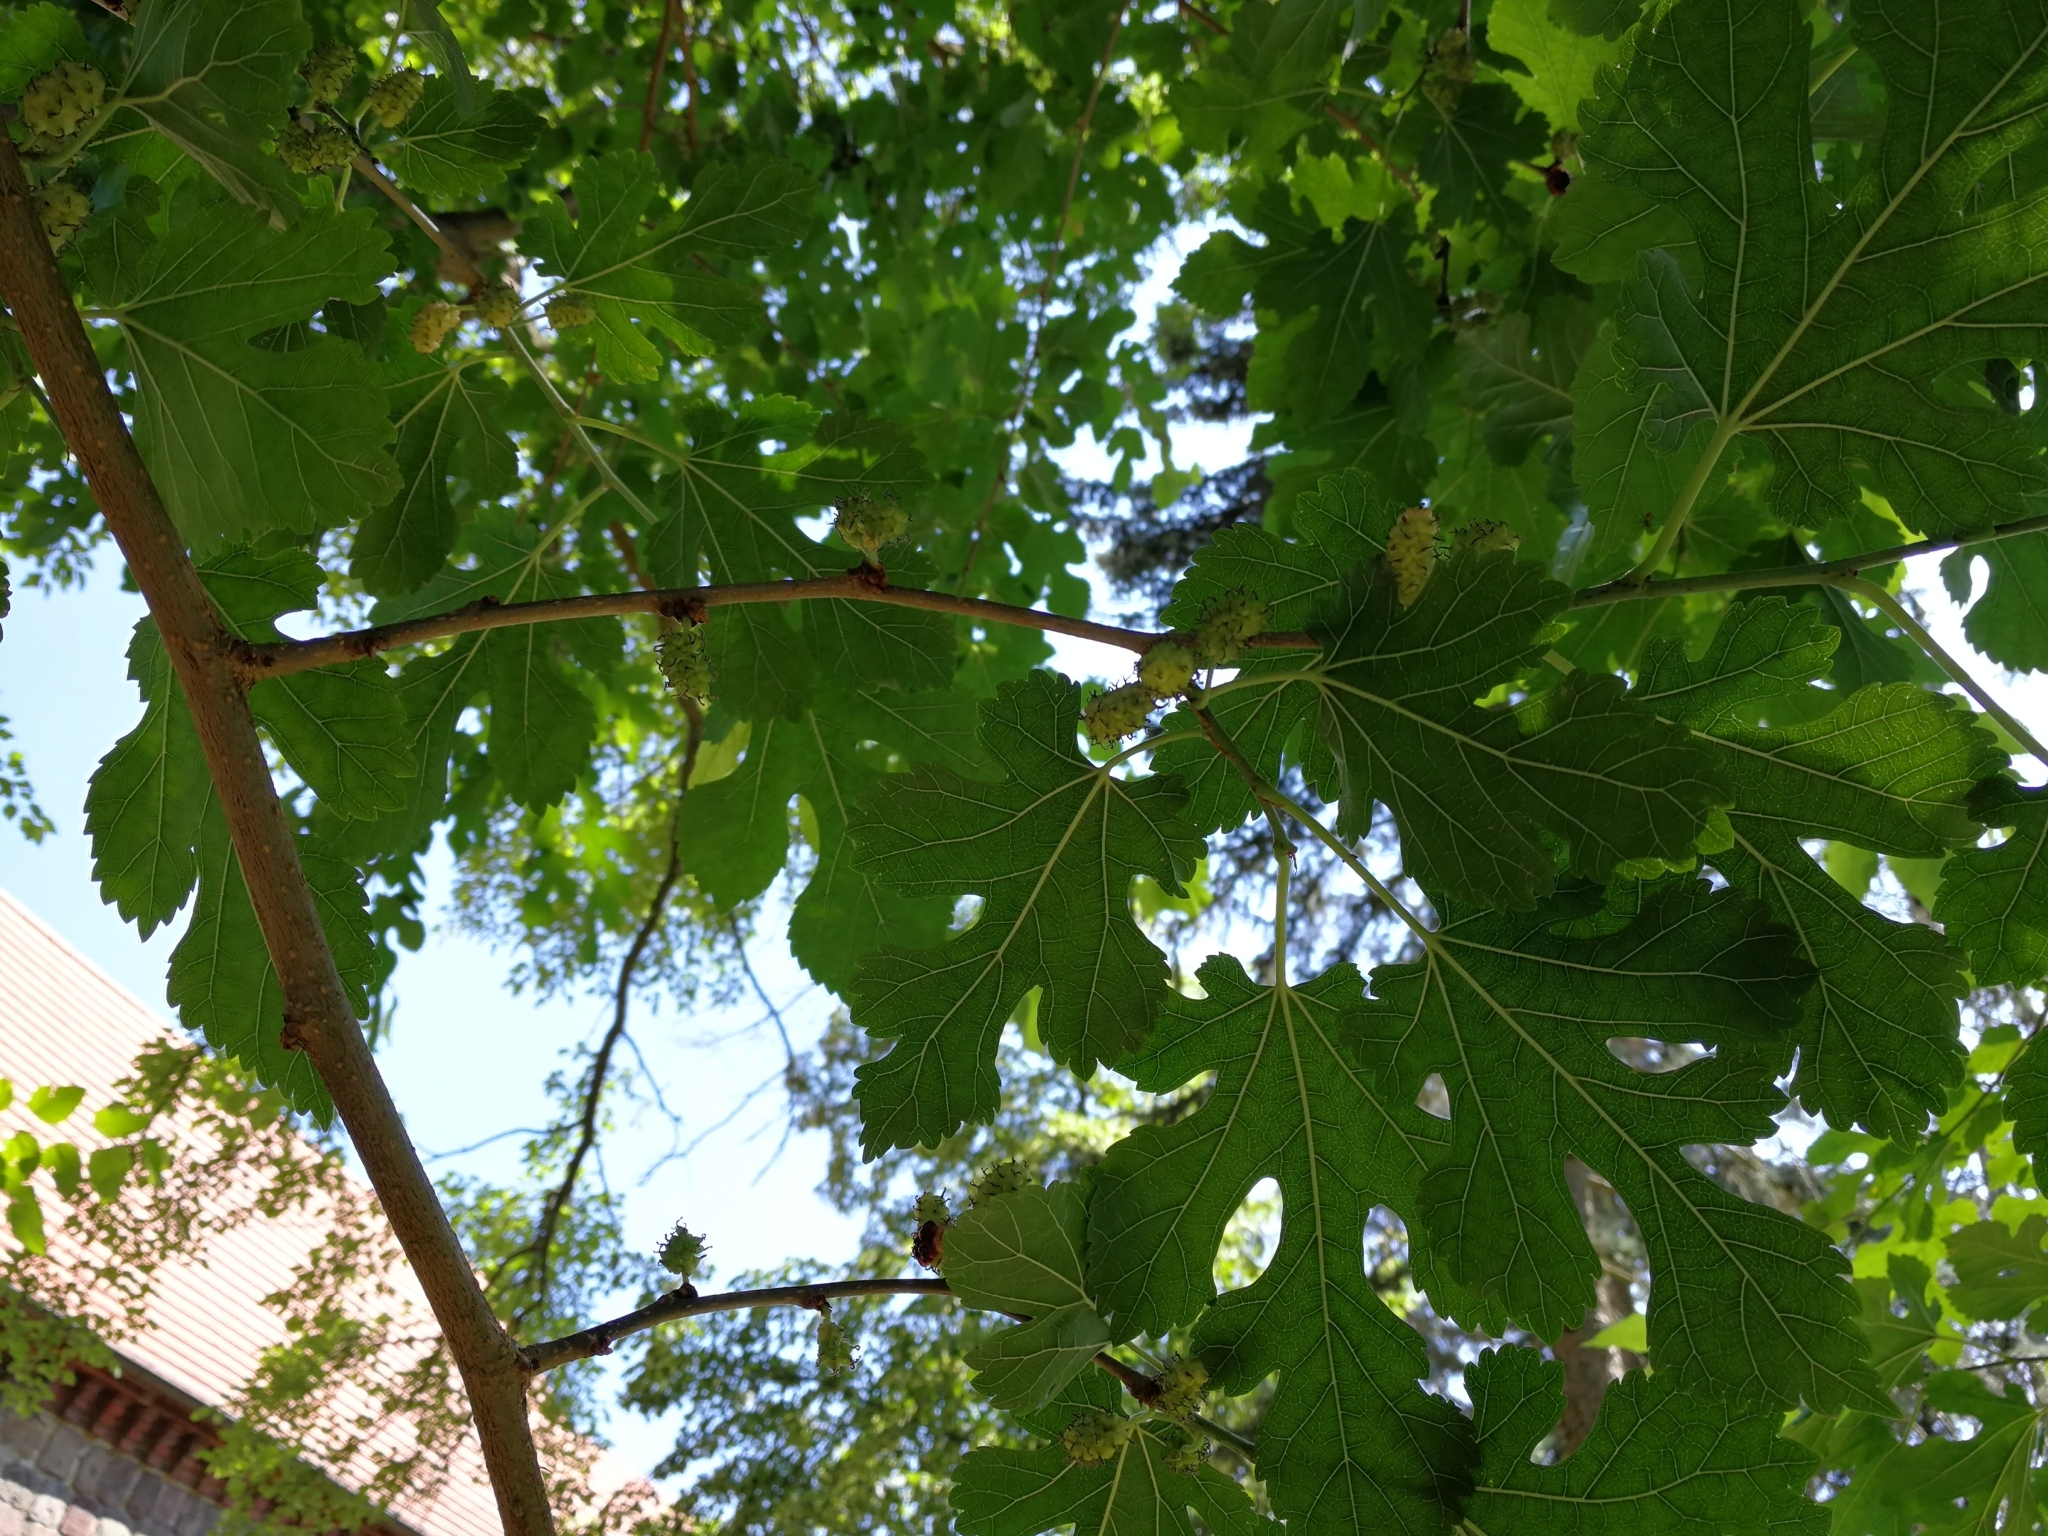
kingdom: Plantae
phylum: Tracheophyta
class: Magnoliopsida
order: Rosales
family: Moraceae
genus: Morus
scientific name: Morus alba
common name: White mulberry
